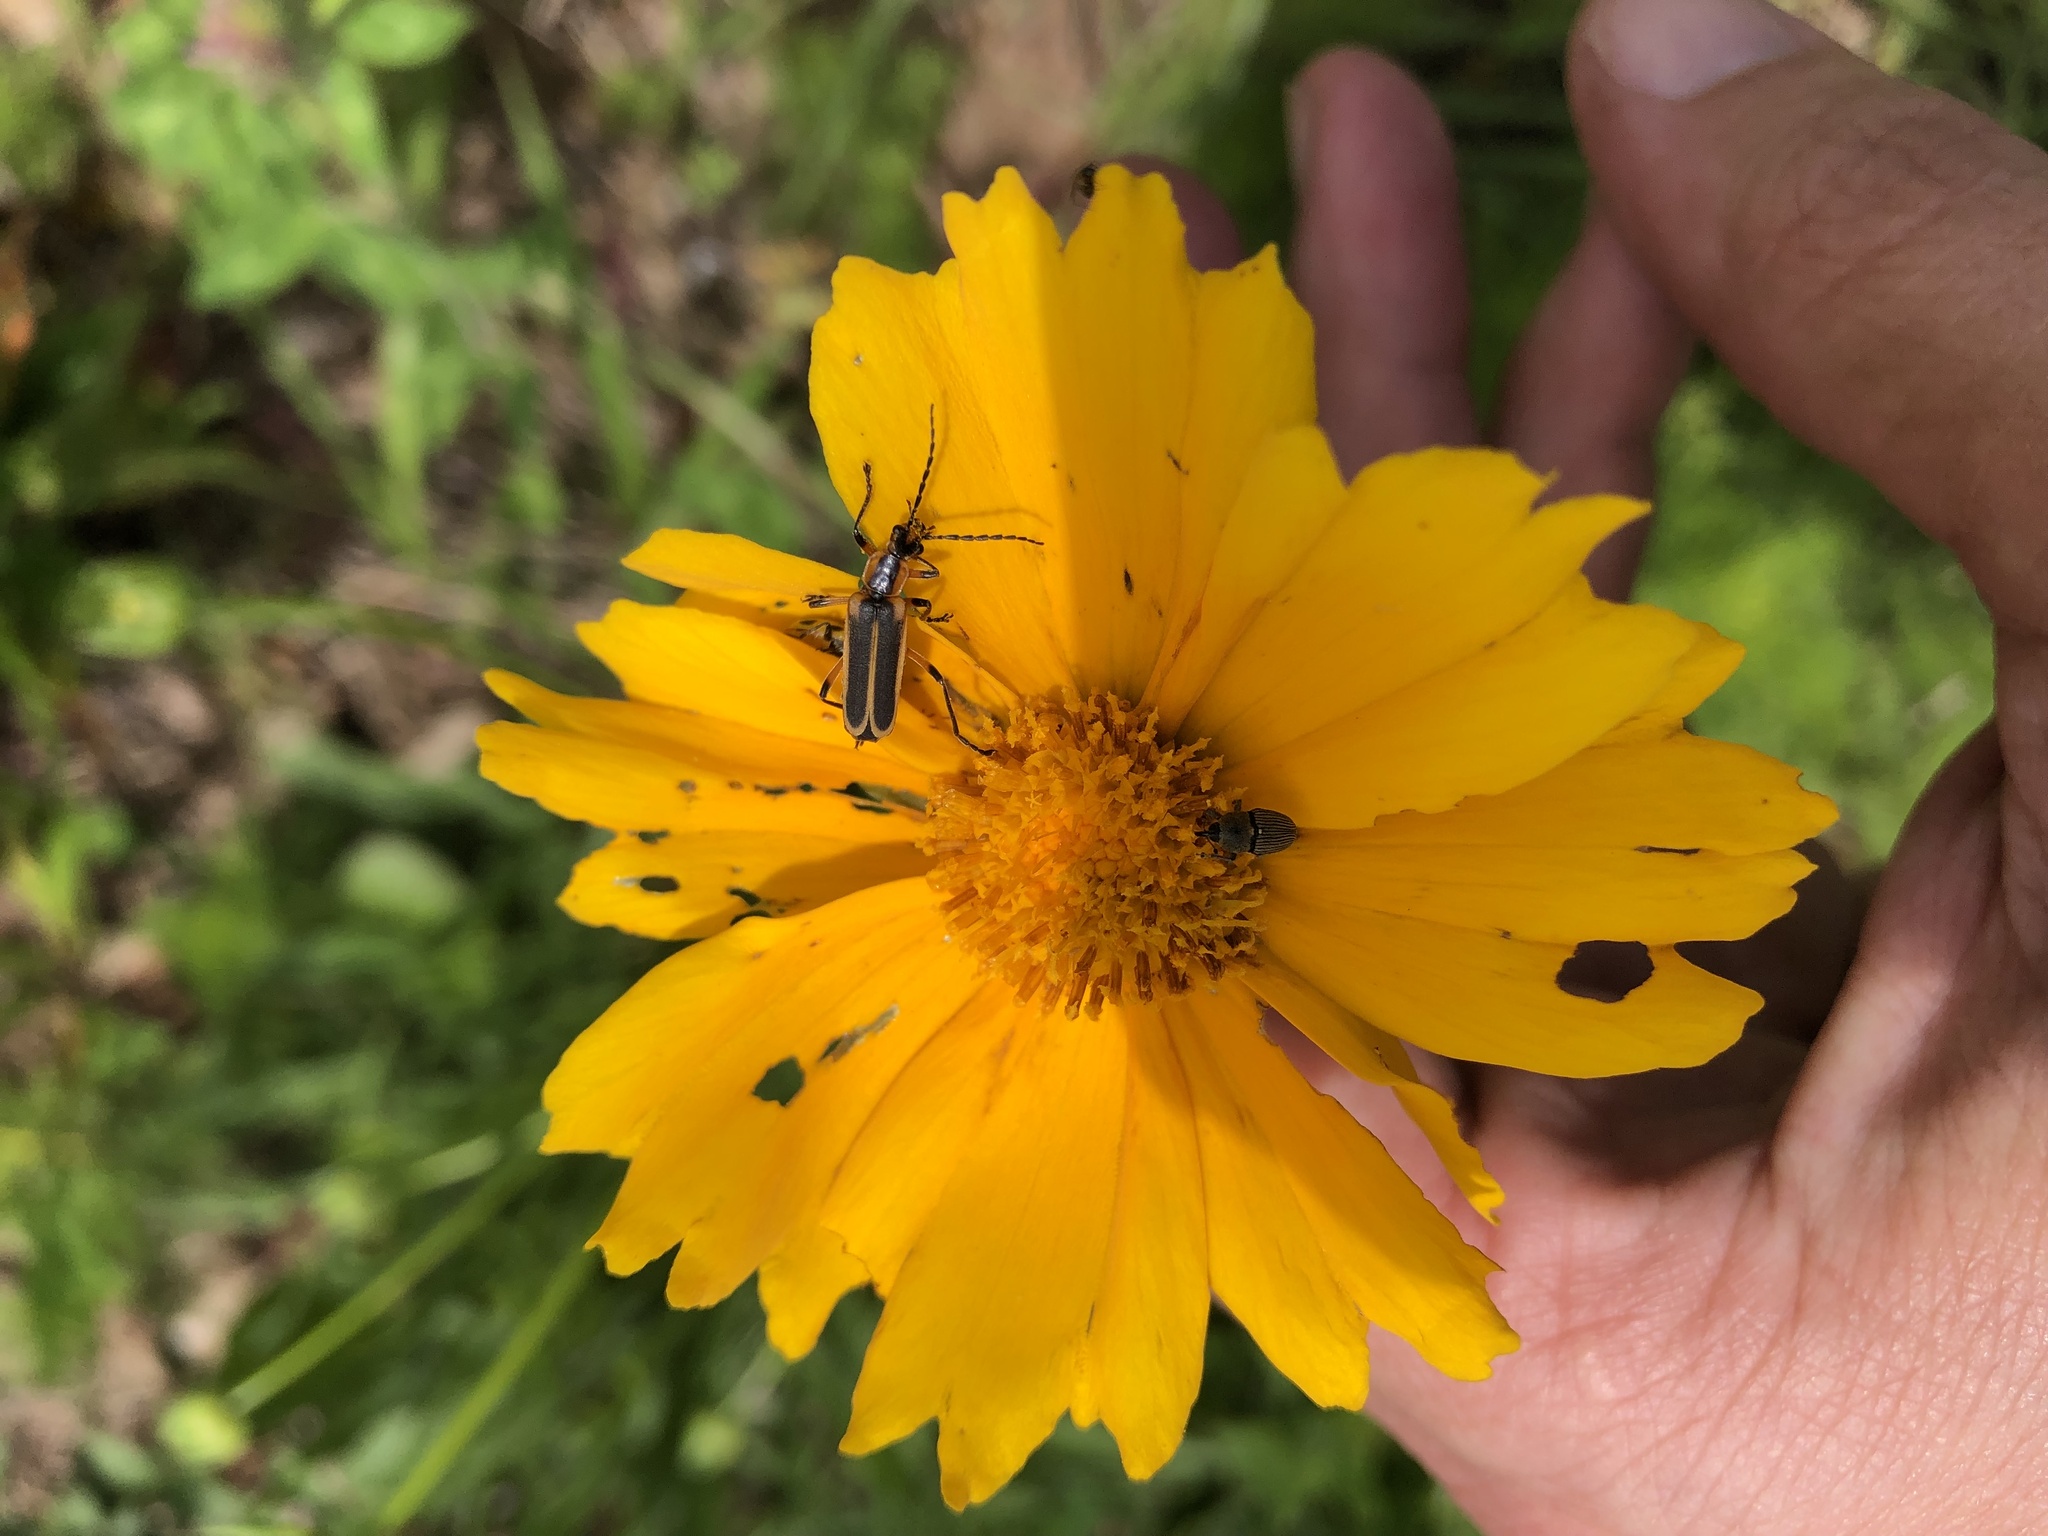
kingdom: Animalia
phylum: Arthropoda
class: Insecta
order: Coleoptera
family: Cantharidae
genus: Chauliognathus
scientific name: Chauliognathus marginatus
